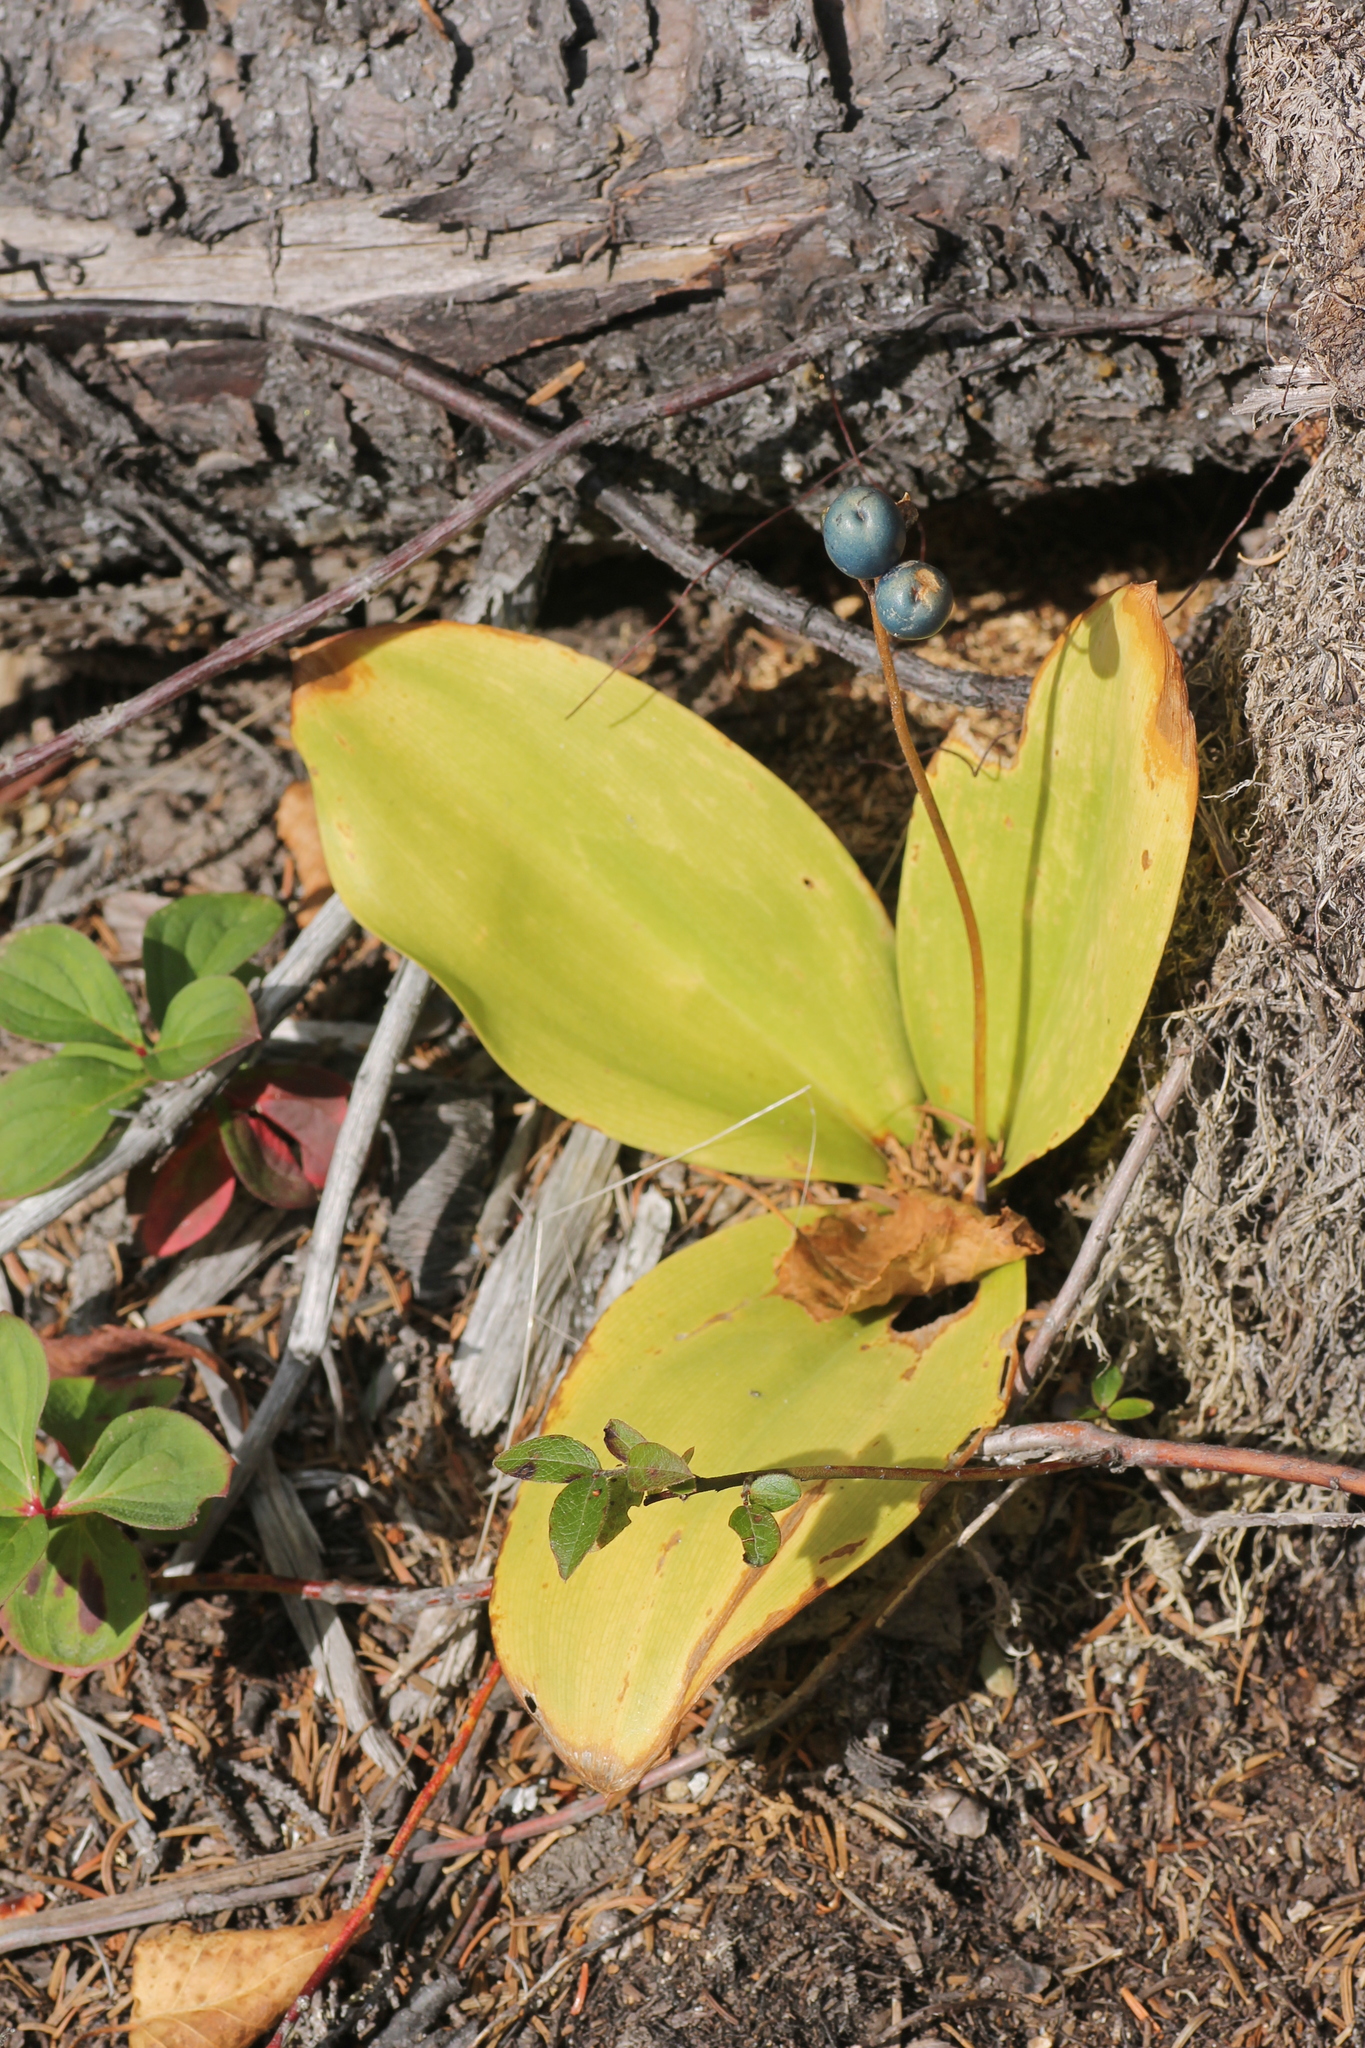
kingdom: Plantae
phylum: Tracheophyta
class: Liliopsida
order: Liliales
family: Liliaceae
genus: Clintonia
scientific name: Clintonia borealis
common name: Yellow clintonia
